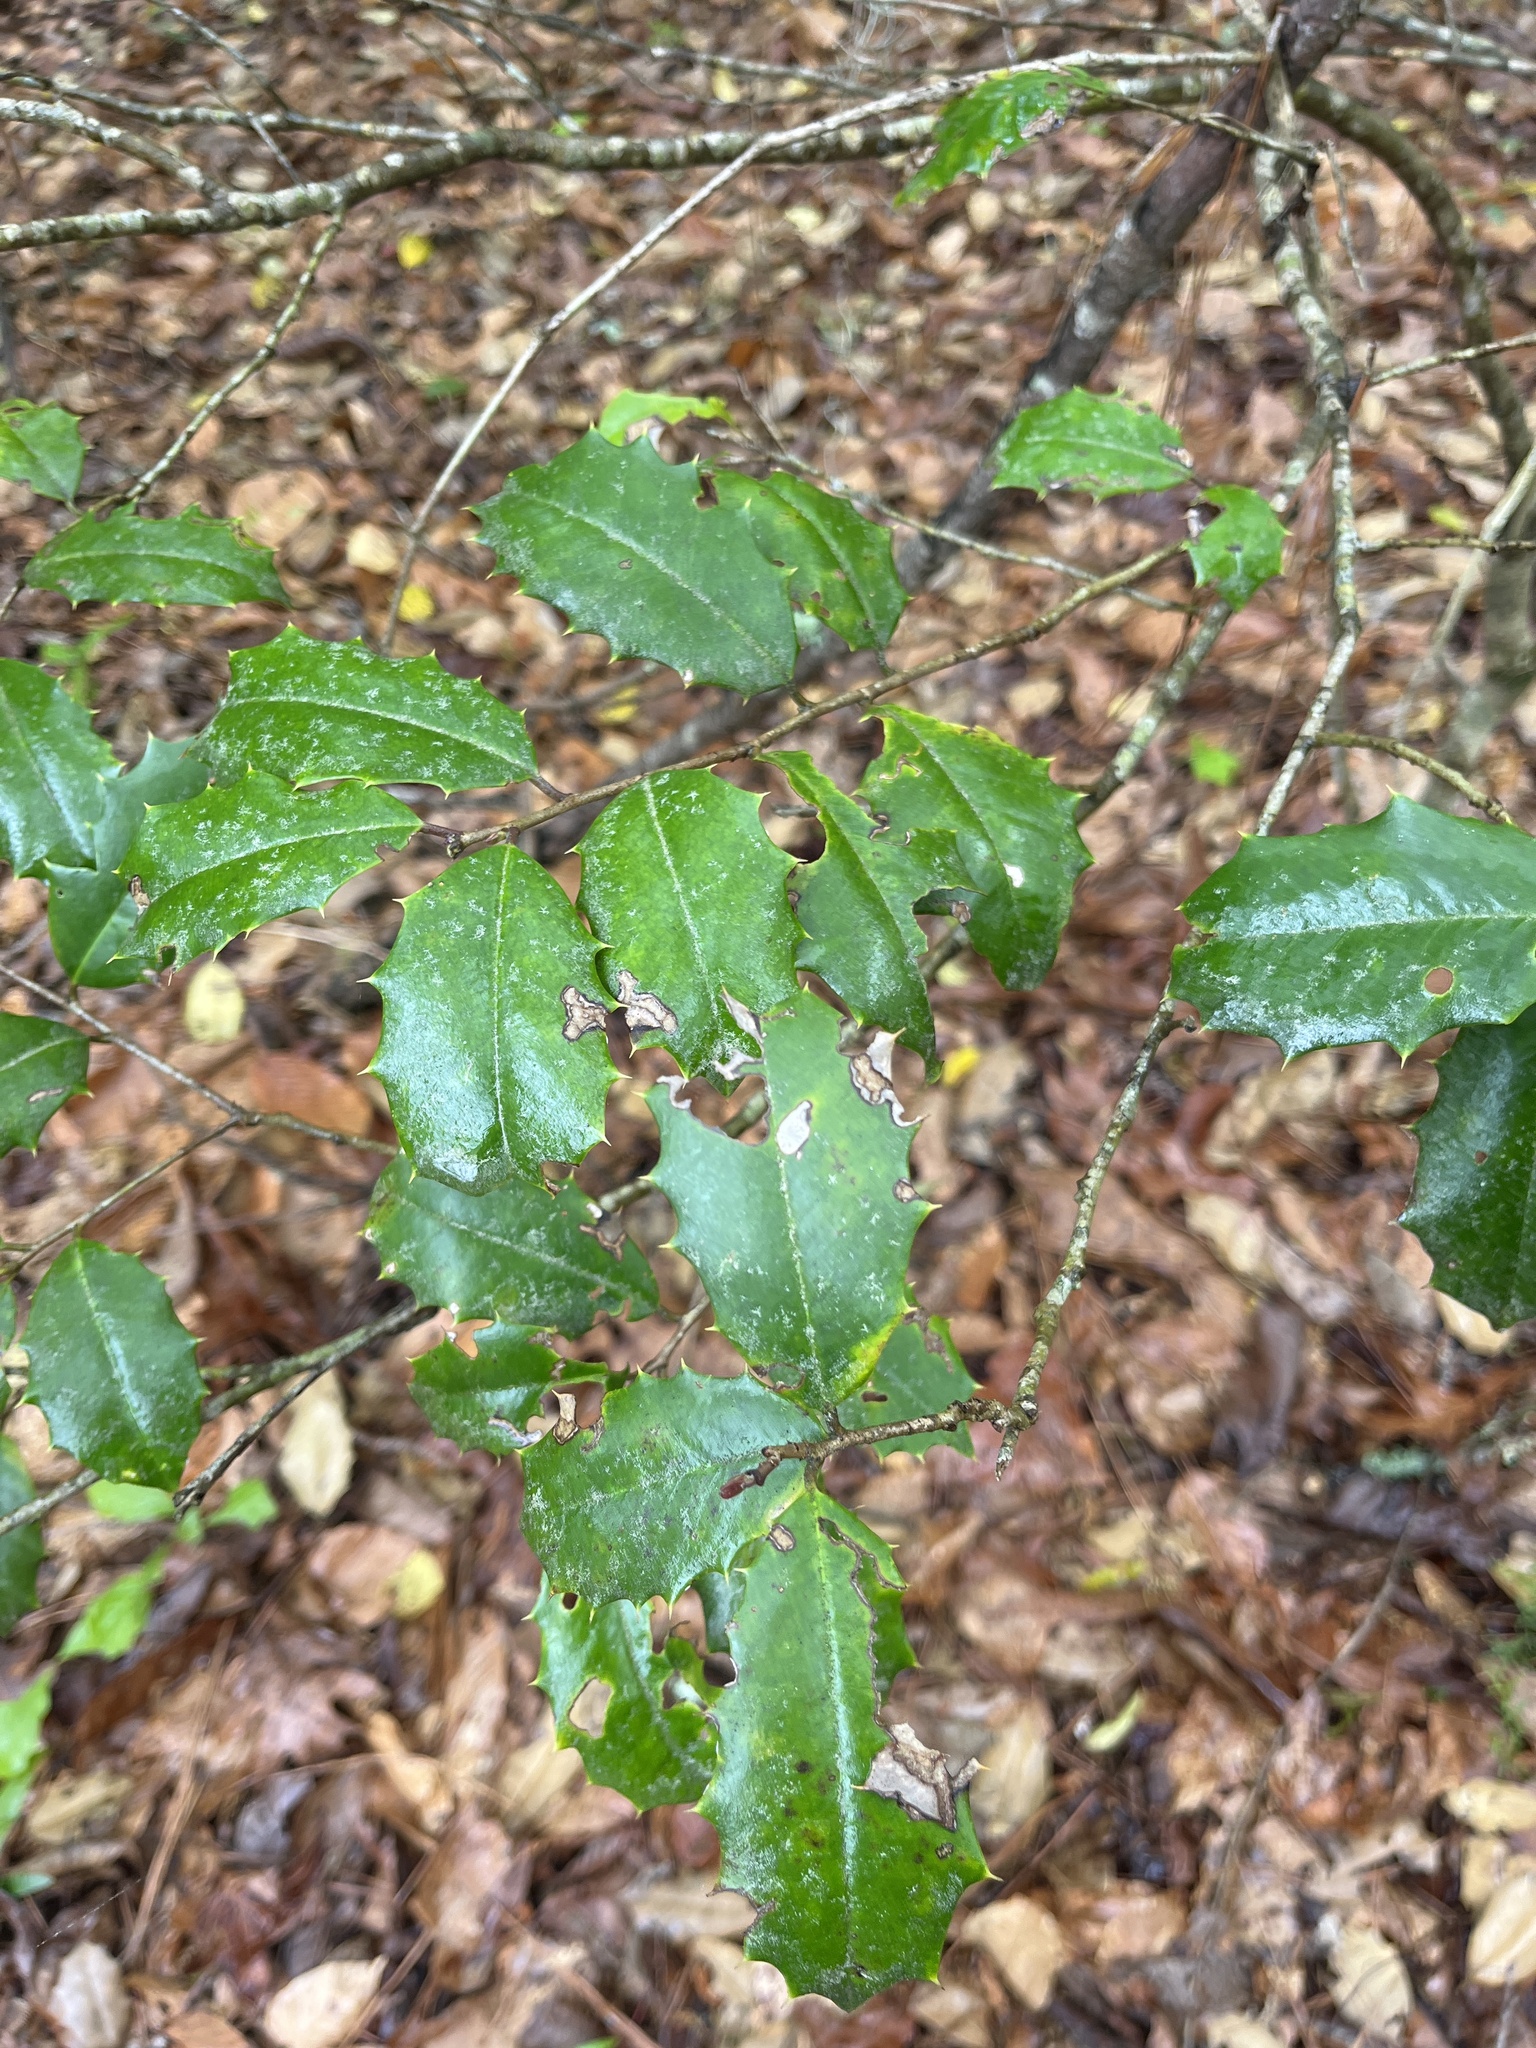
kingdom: Plantae
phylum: Tracheophyta
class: Magnoliopsida
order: Aquifoliales
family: Aquifoliaceae
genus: Ilex
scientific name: Ilex opaca
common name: American holly
